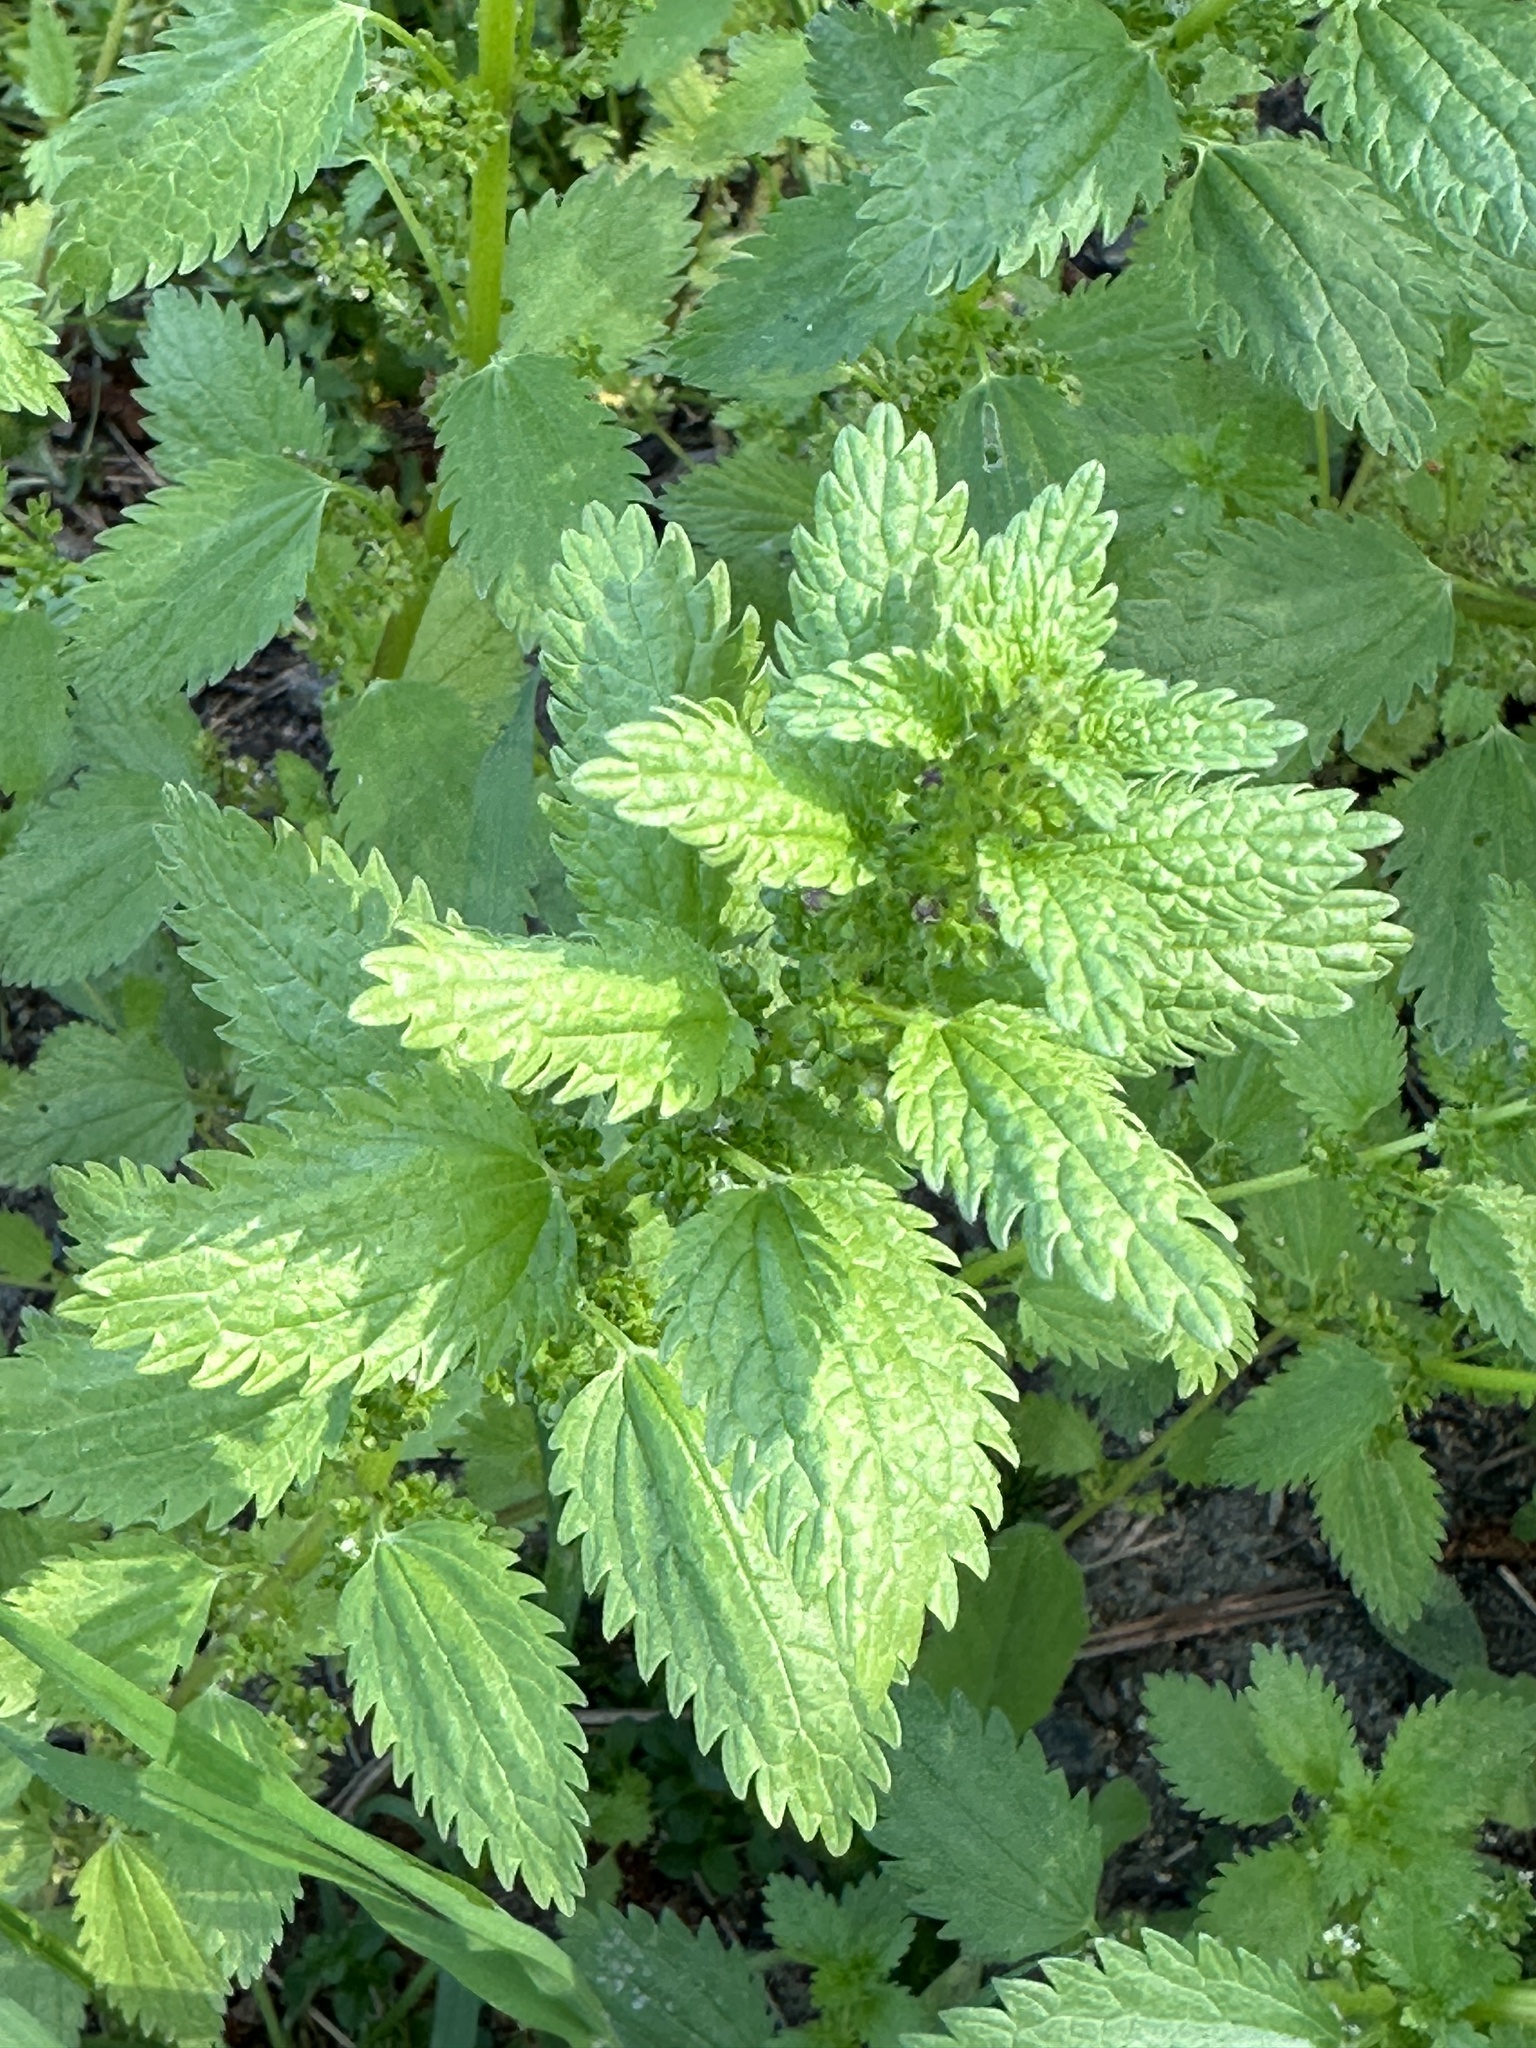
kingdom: Plantae
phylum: Tracheophyta
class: Magnoliopsida
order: Rosales
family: Urticaceae
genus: Urtica
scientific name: Urtica urens
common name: Dwarf nettle
